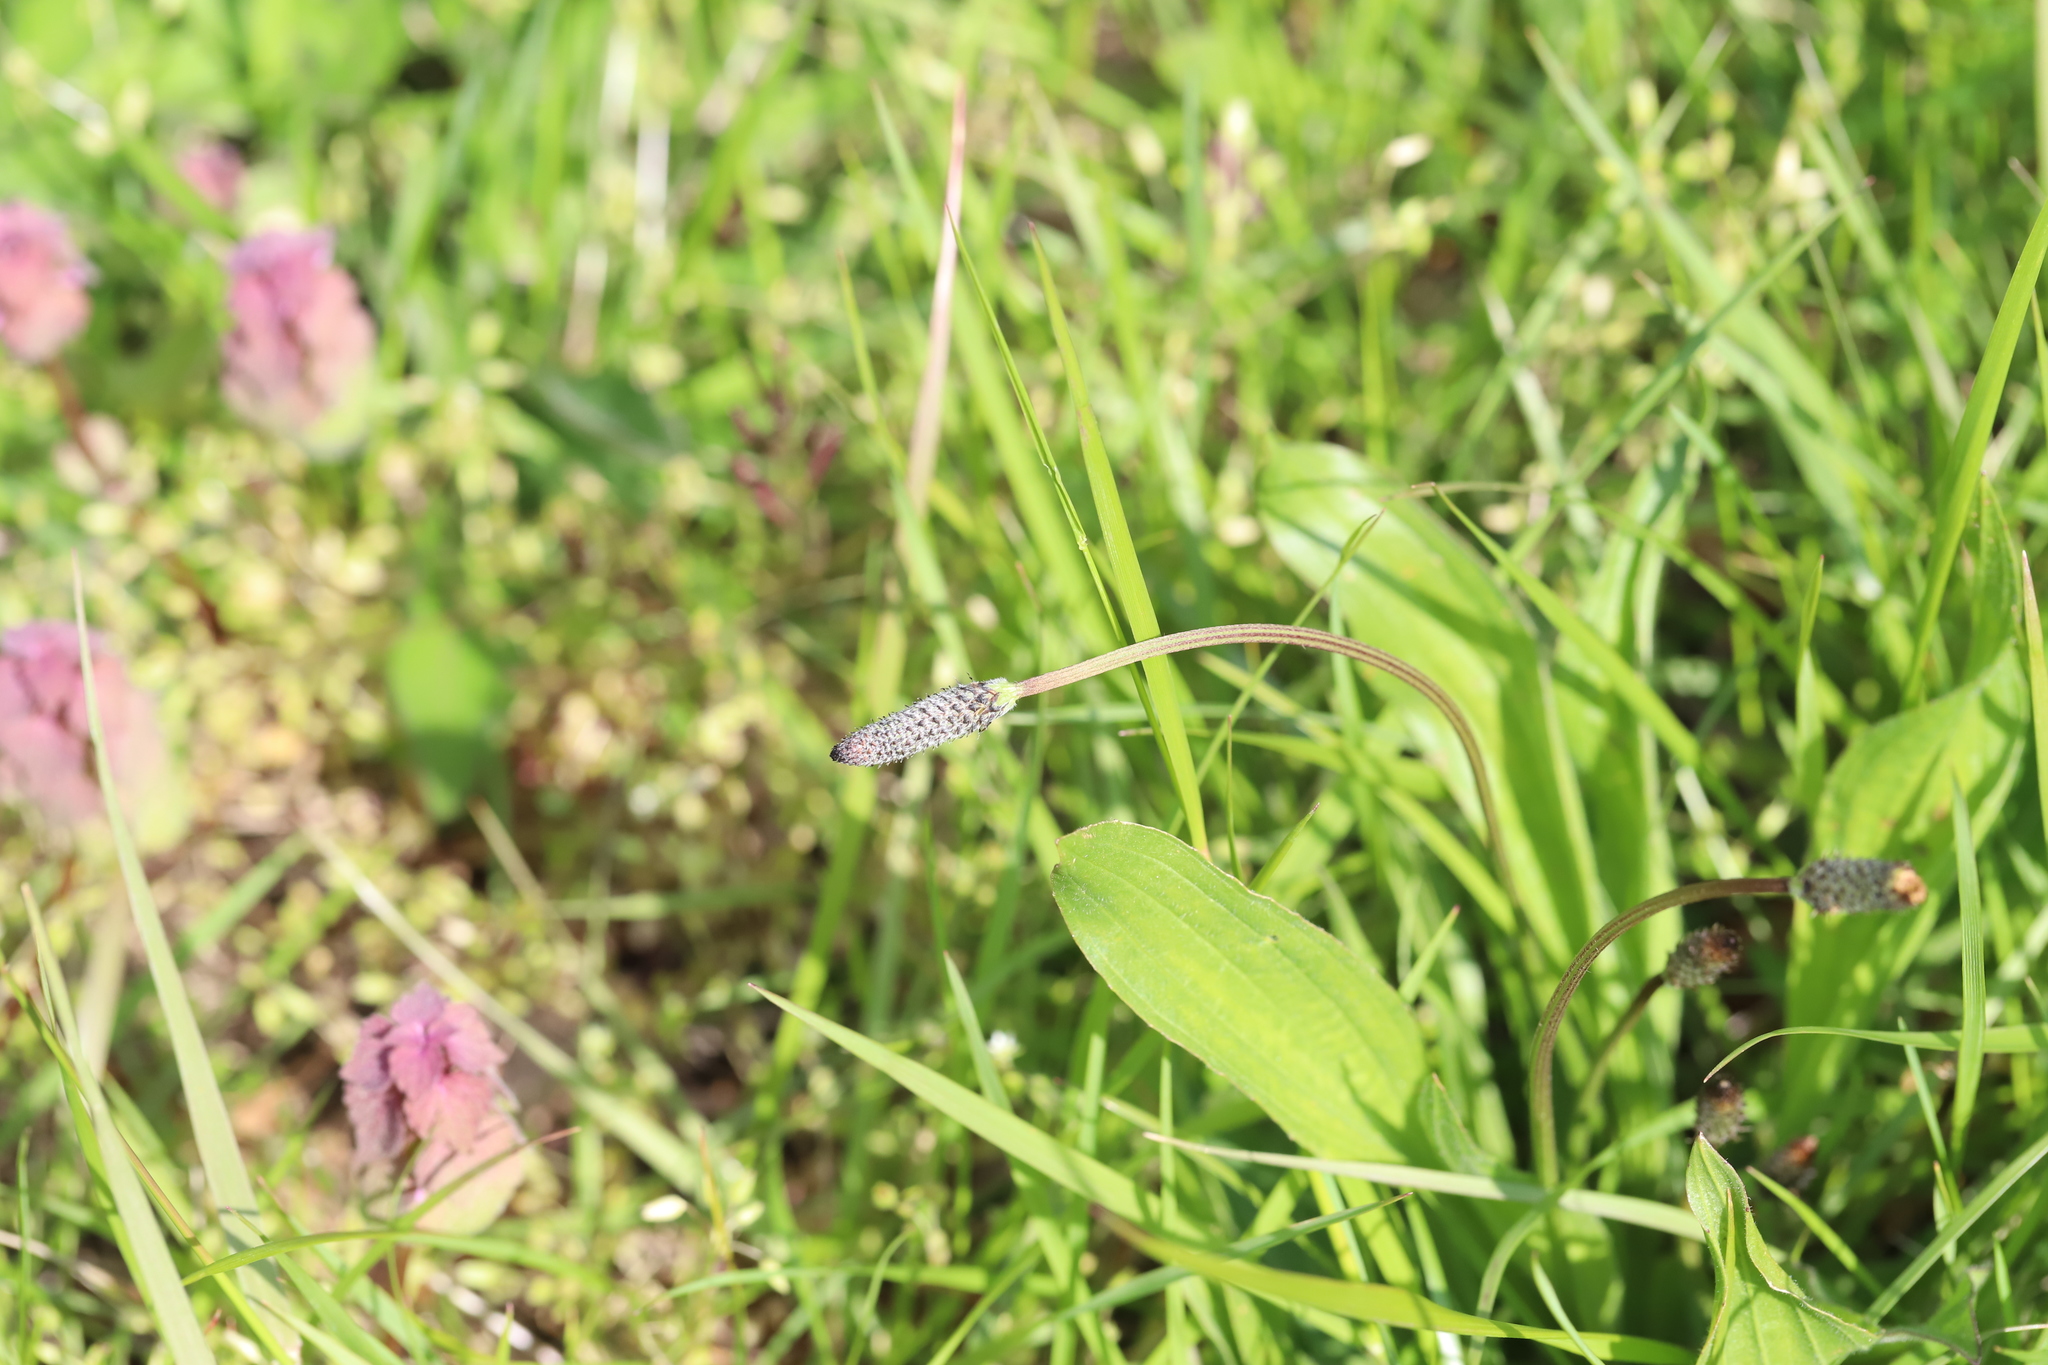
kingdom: Plantae
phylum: Tracheophyta
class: Magnoliopsida
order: Lamiales
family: Plantaginaceae
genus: Plantago
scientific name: Plantago lanceolata
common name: Ribwort plantain
